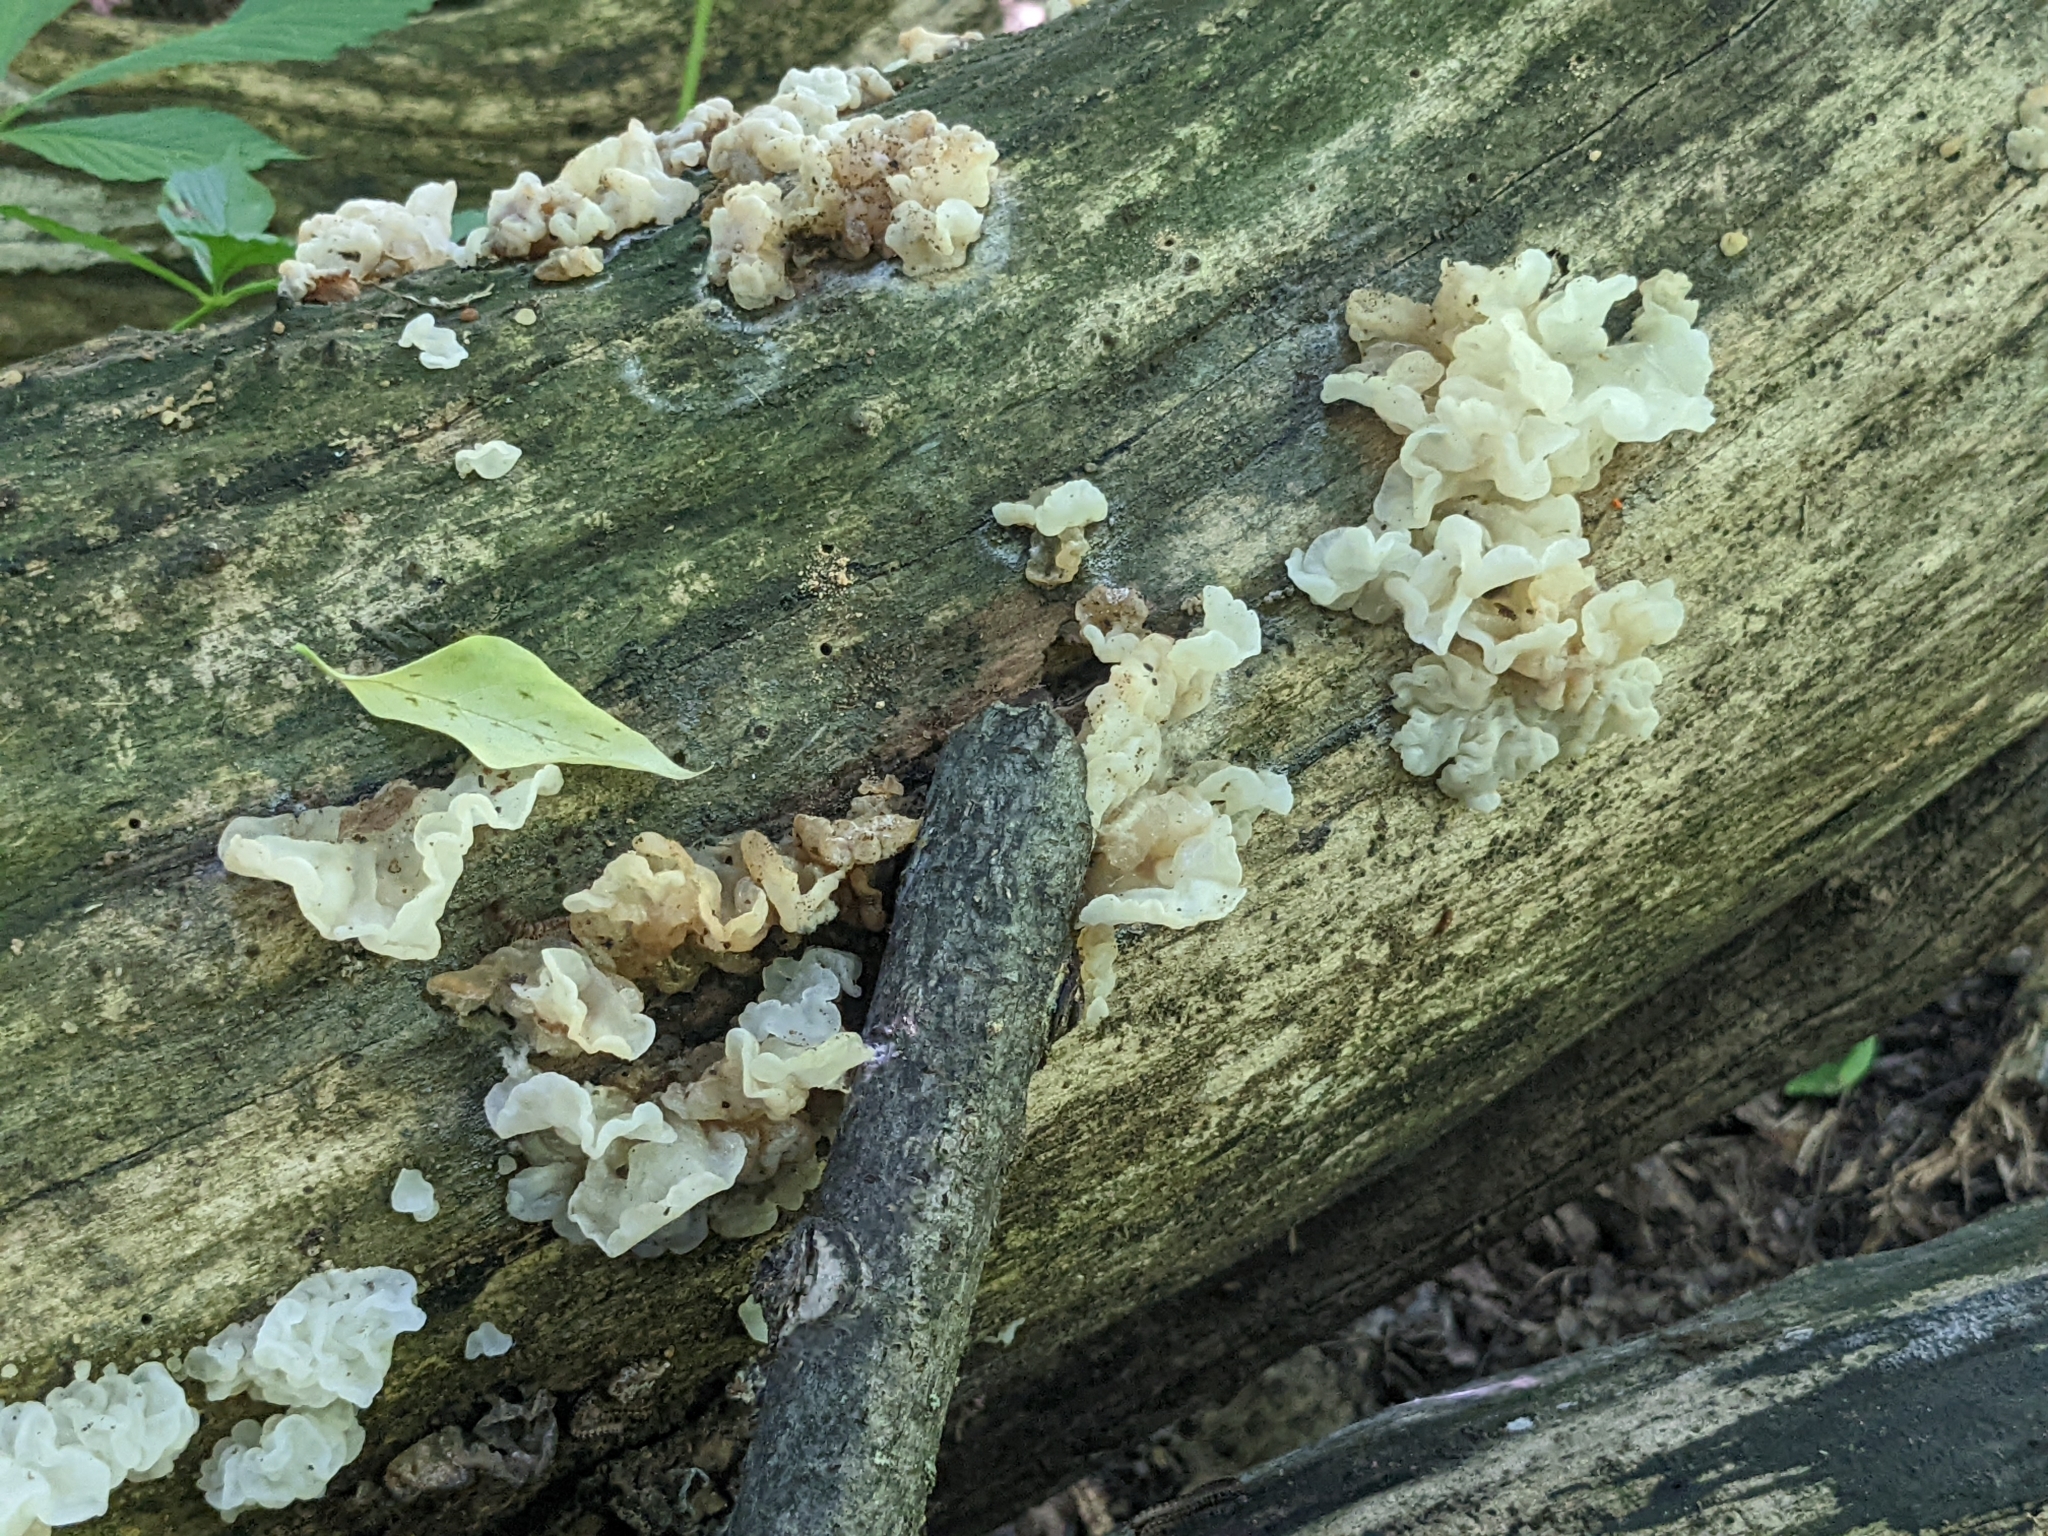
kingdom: Fungi
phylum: Basidiomycota
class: Agaricomycetes
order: Auriculariales
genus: Ductifera
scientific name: Ductifera pululahuana
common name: White jelly fungus
